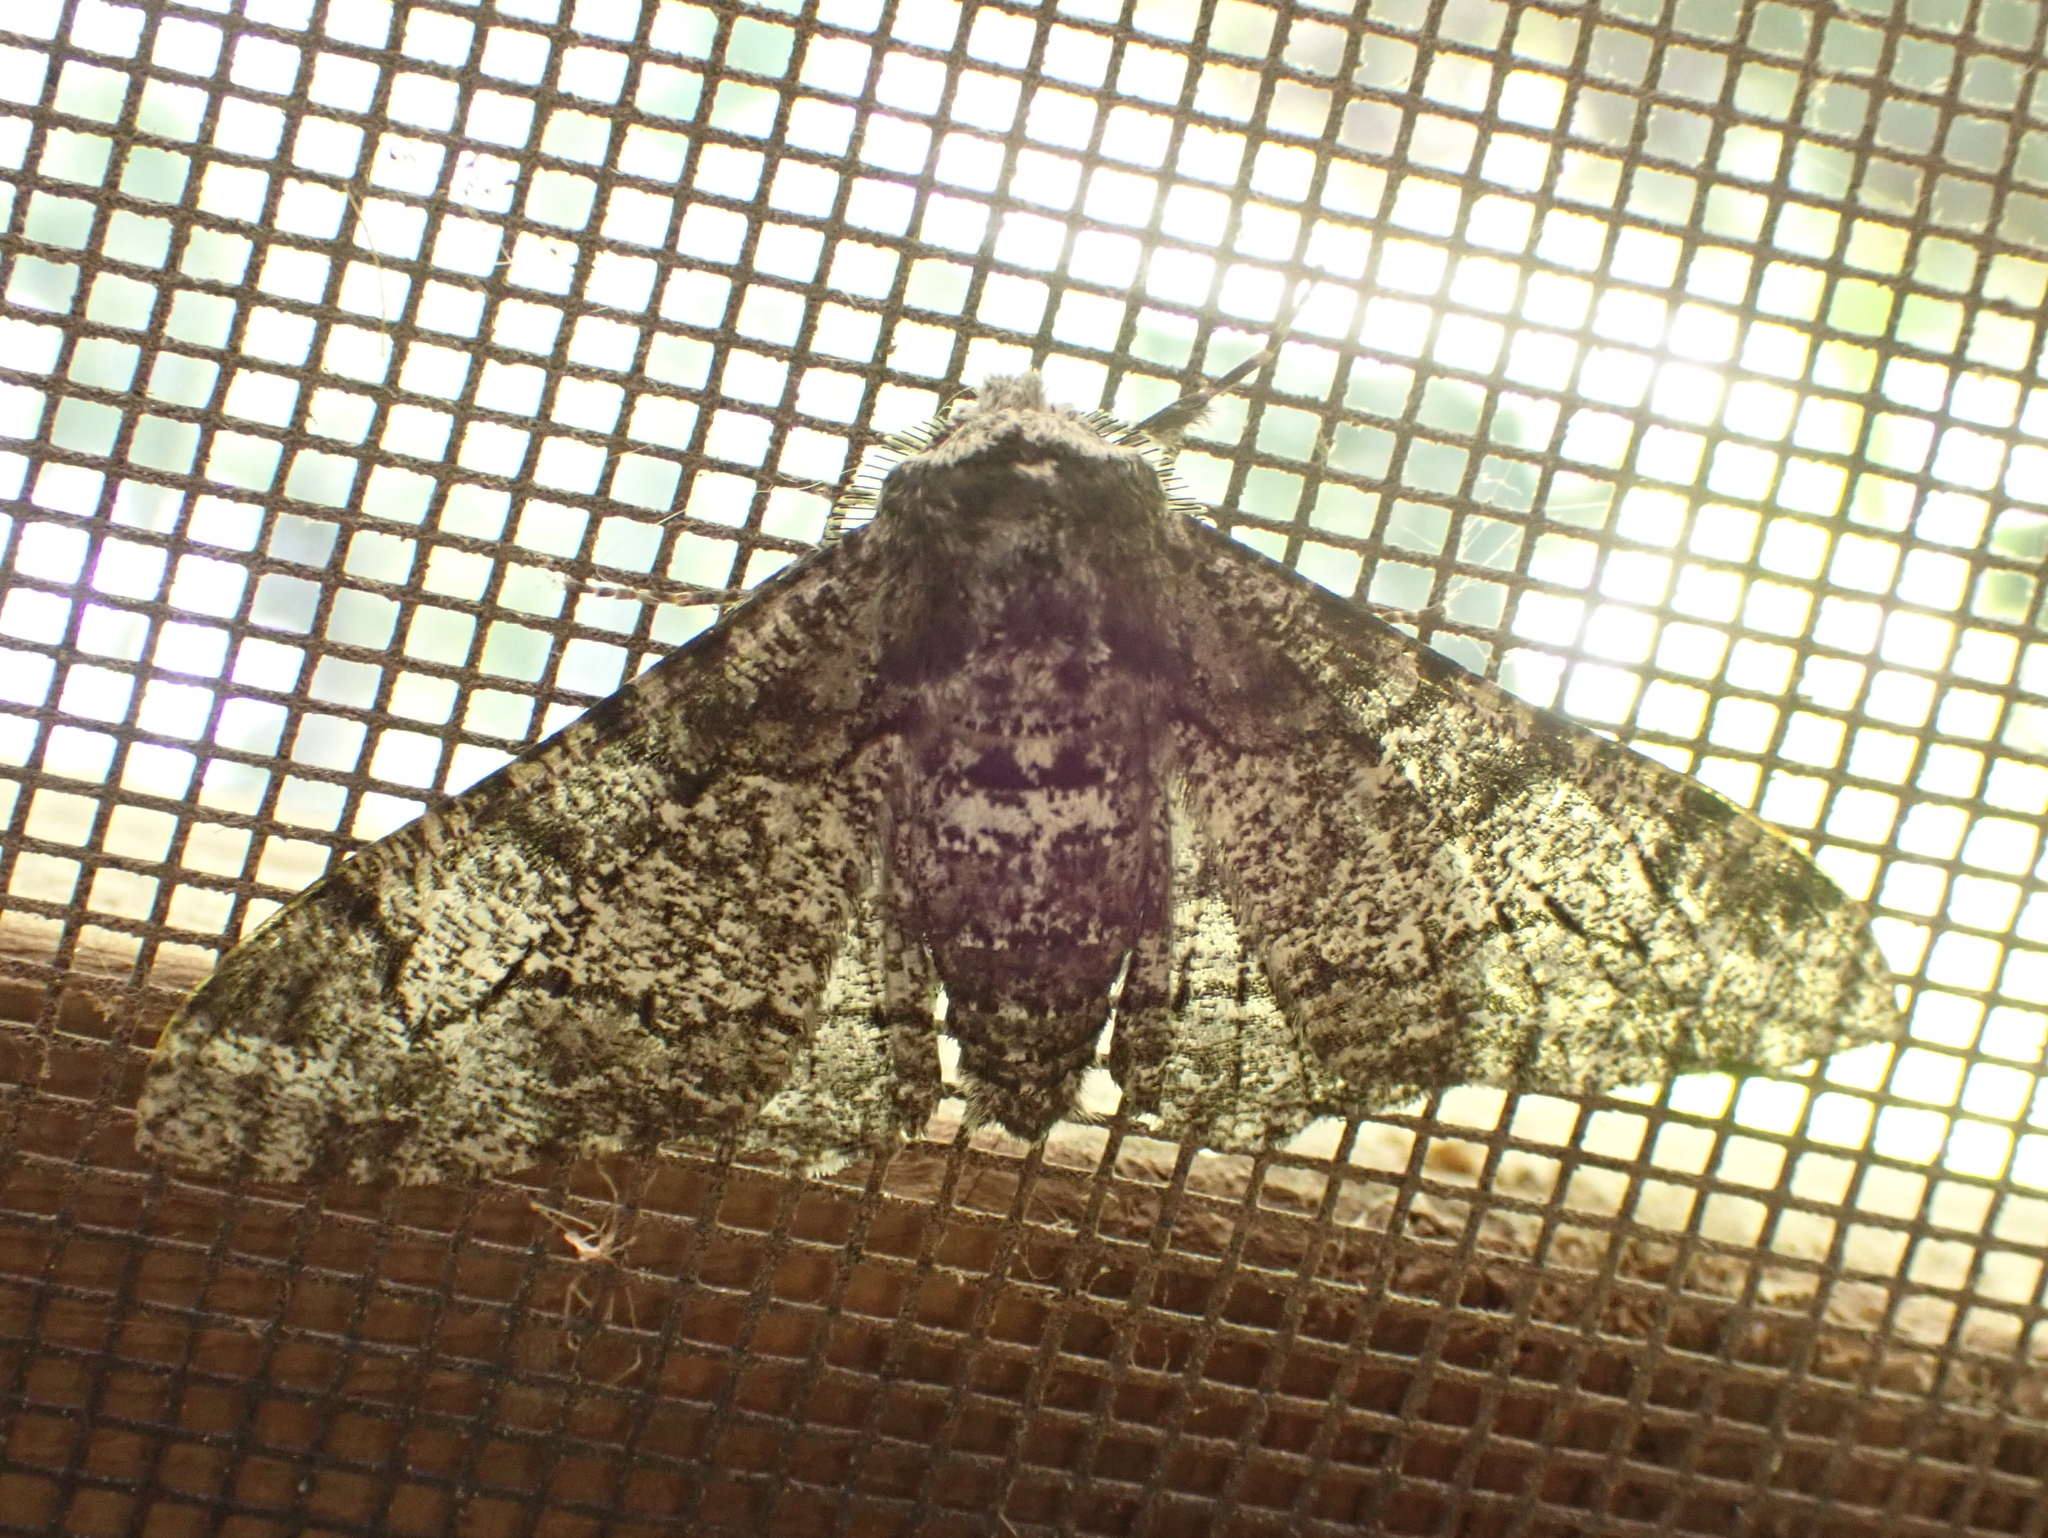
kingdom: Animalia
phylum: Arthropoda
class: Insecta
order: Lepidoptera
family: Geometridae
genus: Biston
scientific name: Biston betularia
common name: Peppered moth
